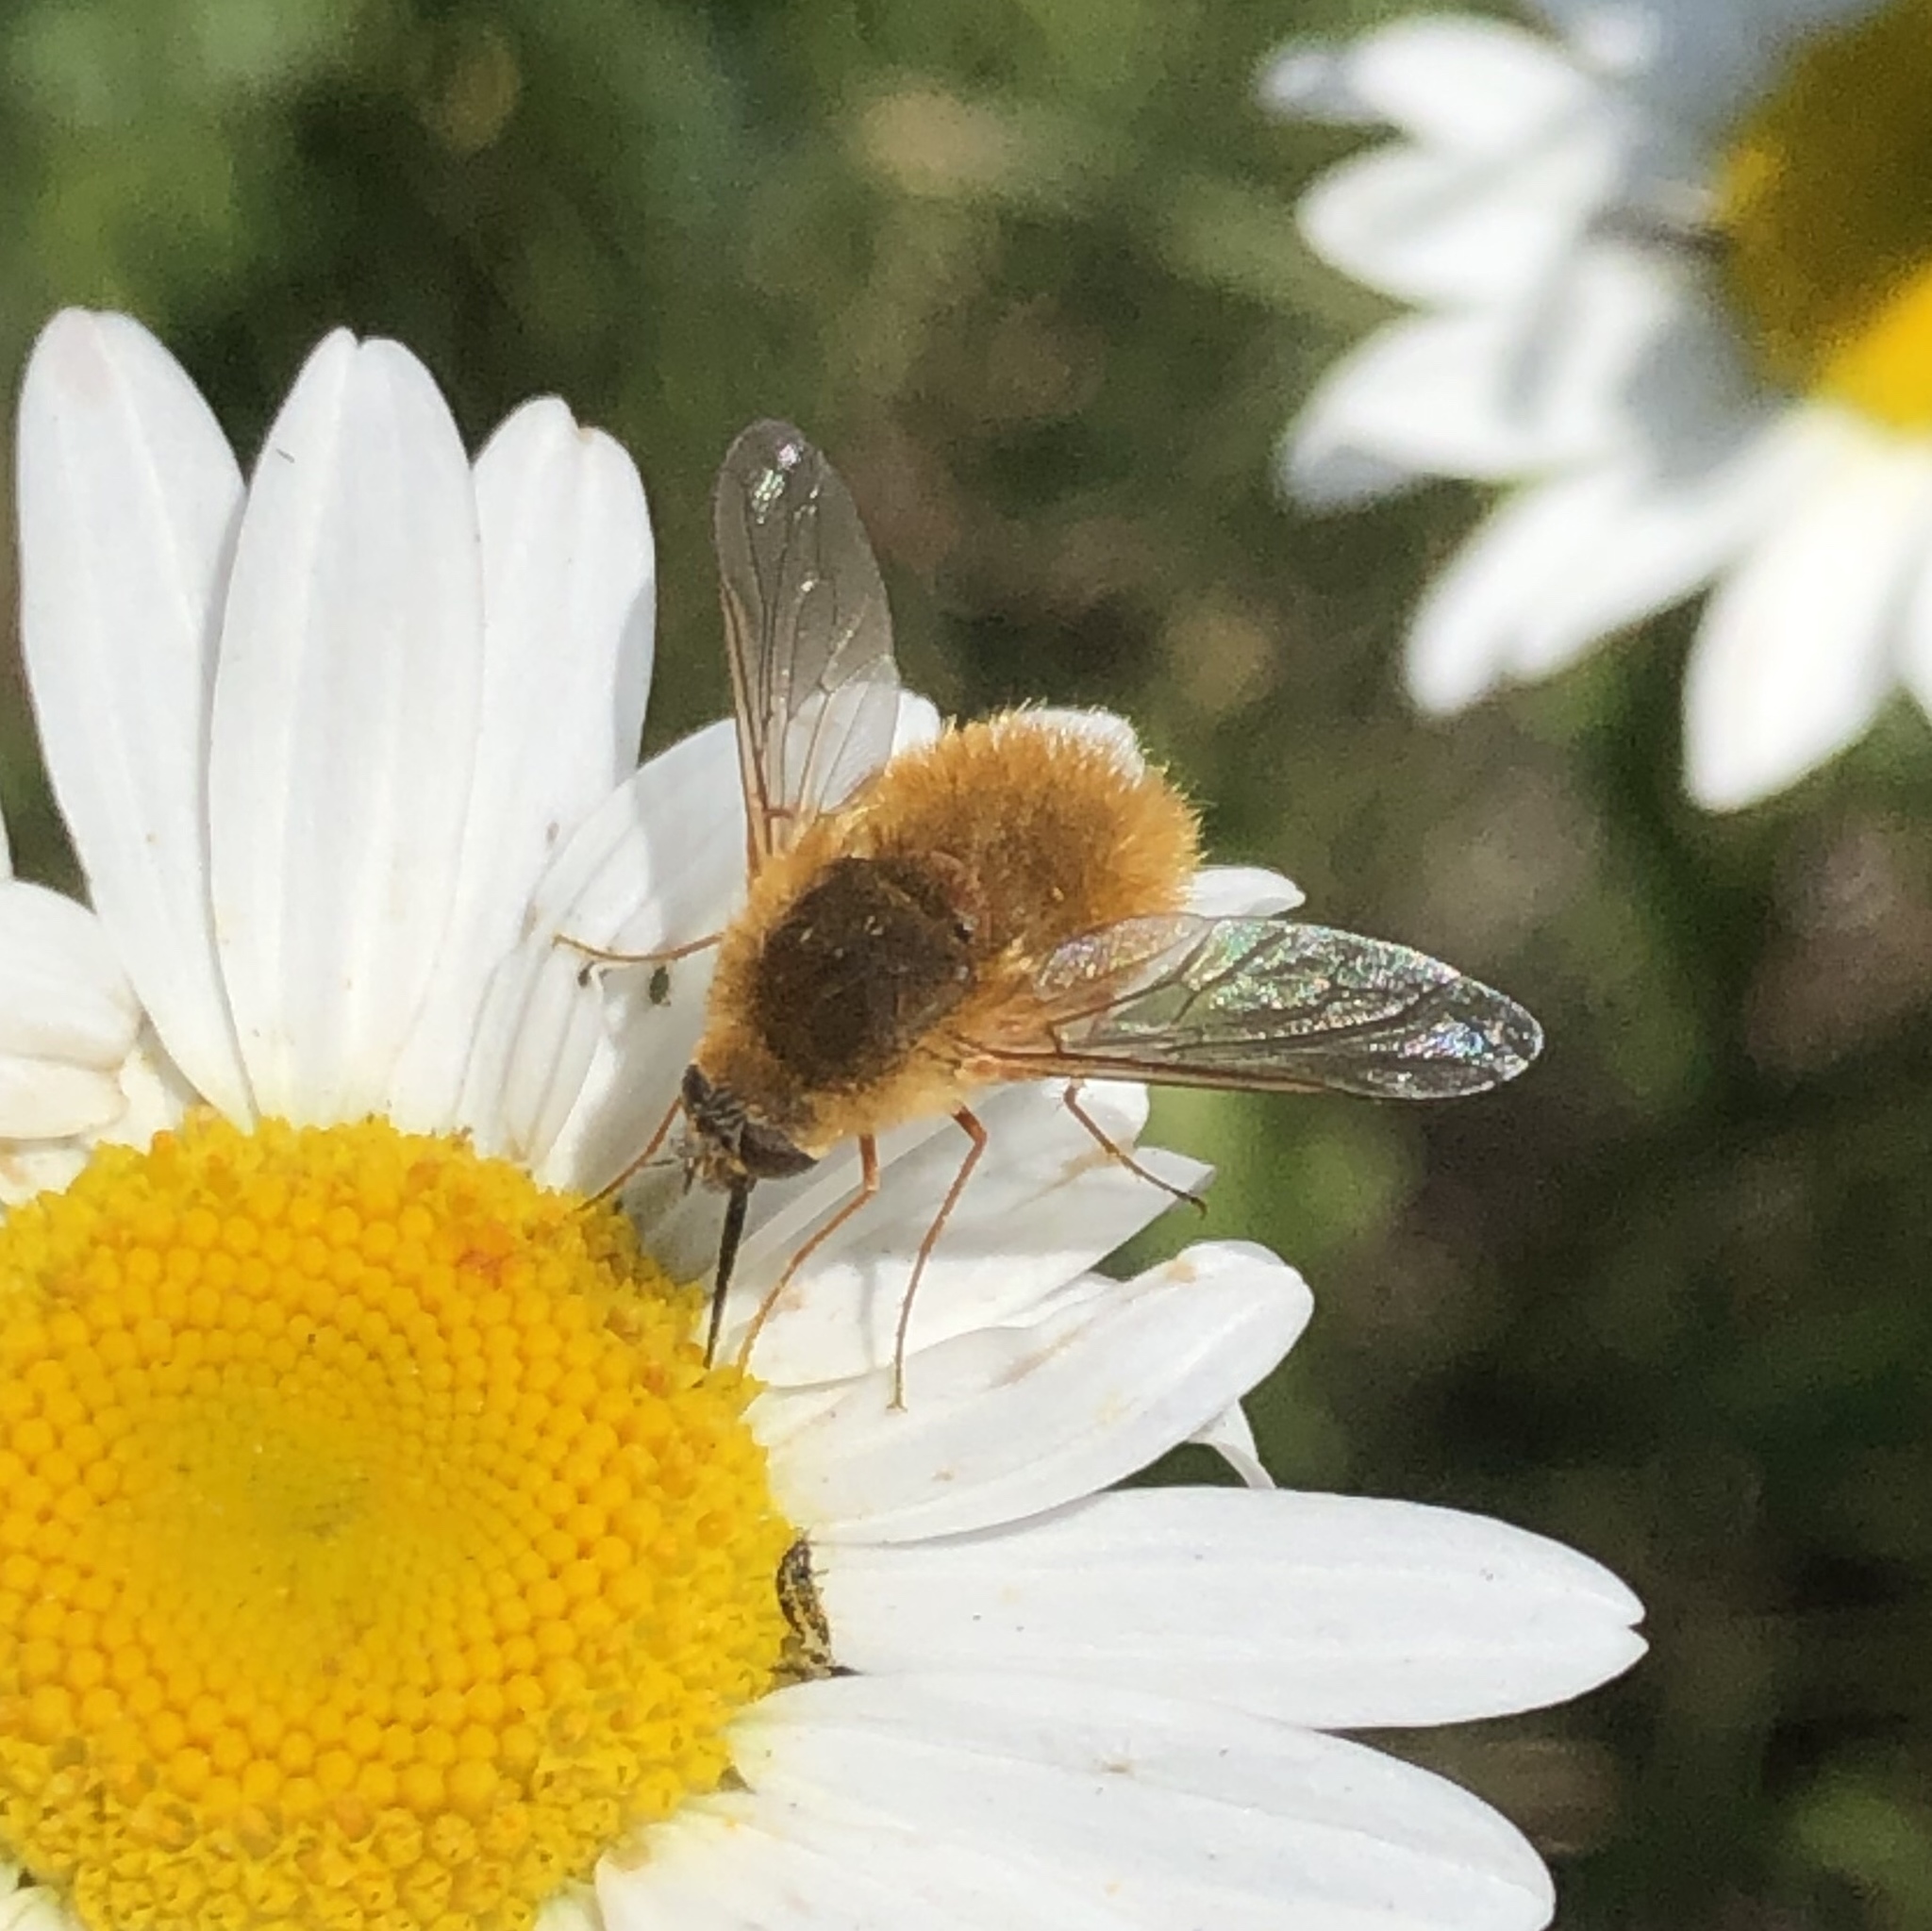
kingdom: Animalia
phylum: Arthropoda
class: Insecta
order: Diptera
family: Bombyliidae
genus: Systoechus
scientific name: Systoechus vulgaris
